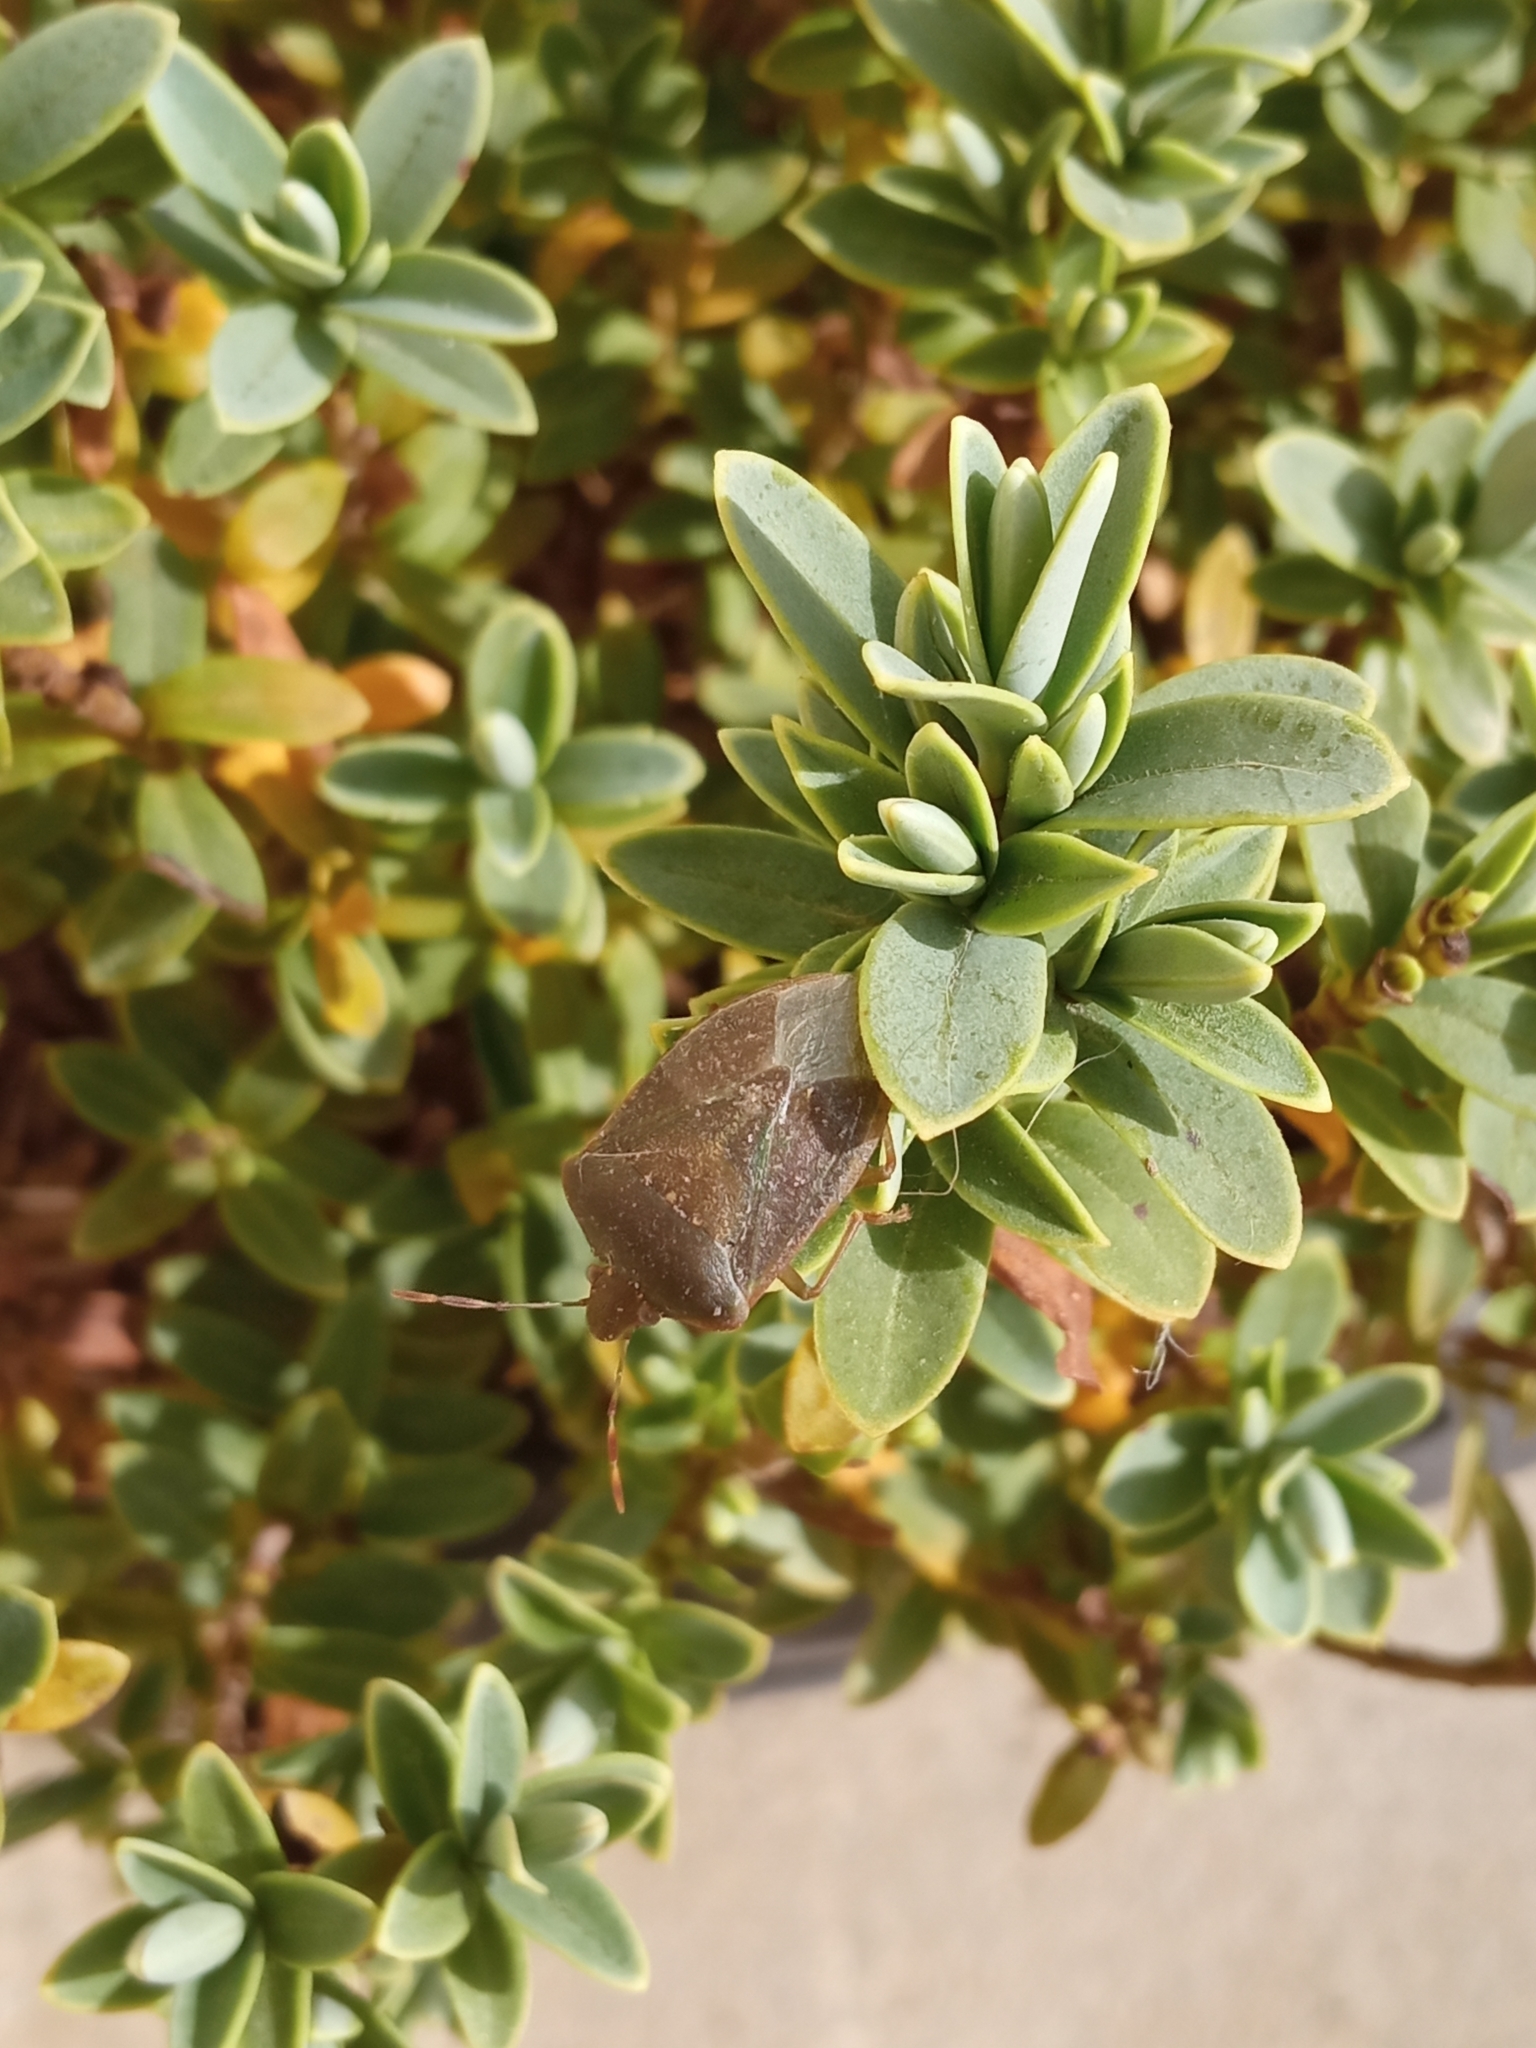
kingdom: Animalia
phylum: Arthropoda
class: Insecta
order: Hemiptera
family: Pentatomidae
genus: Nezara
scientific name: Nezara viridula
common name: Southern green stink bug
